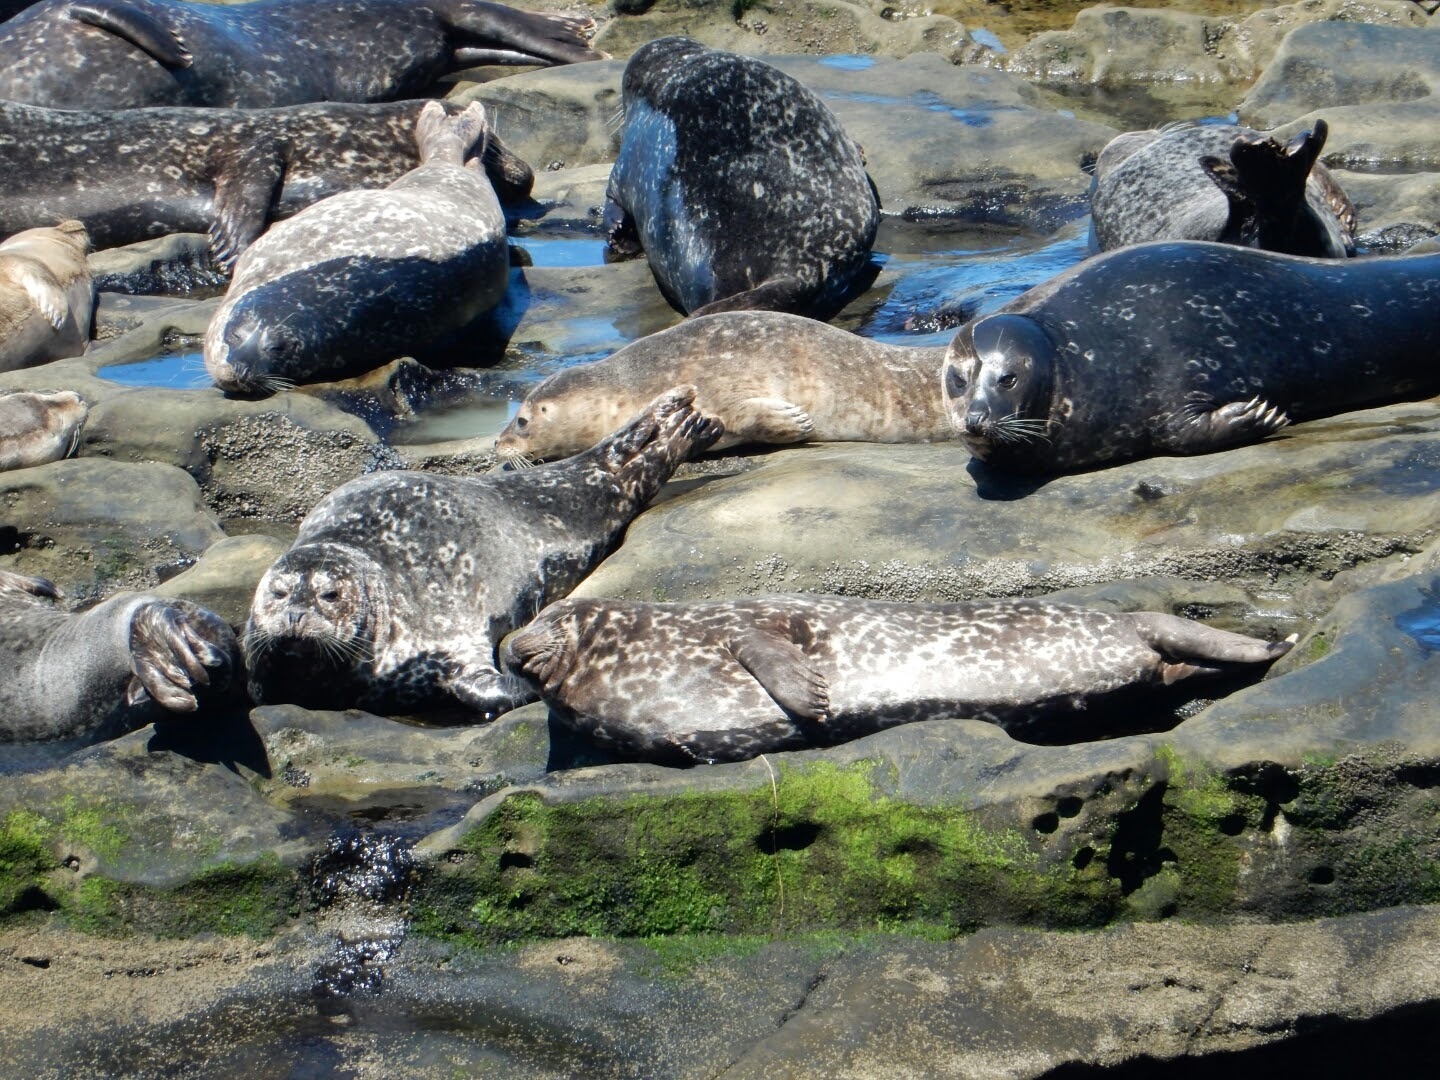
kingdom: Animalia
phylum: Chordata
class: Mammalia
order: Carnivora
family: Phocidae
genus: Phoca
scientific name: Phoca vitulina
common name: Harbor seal
